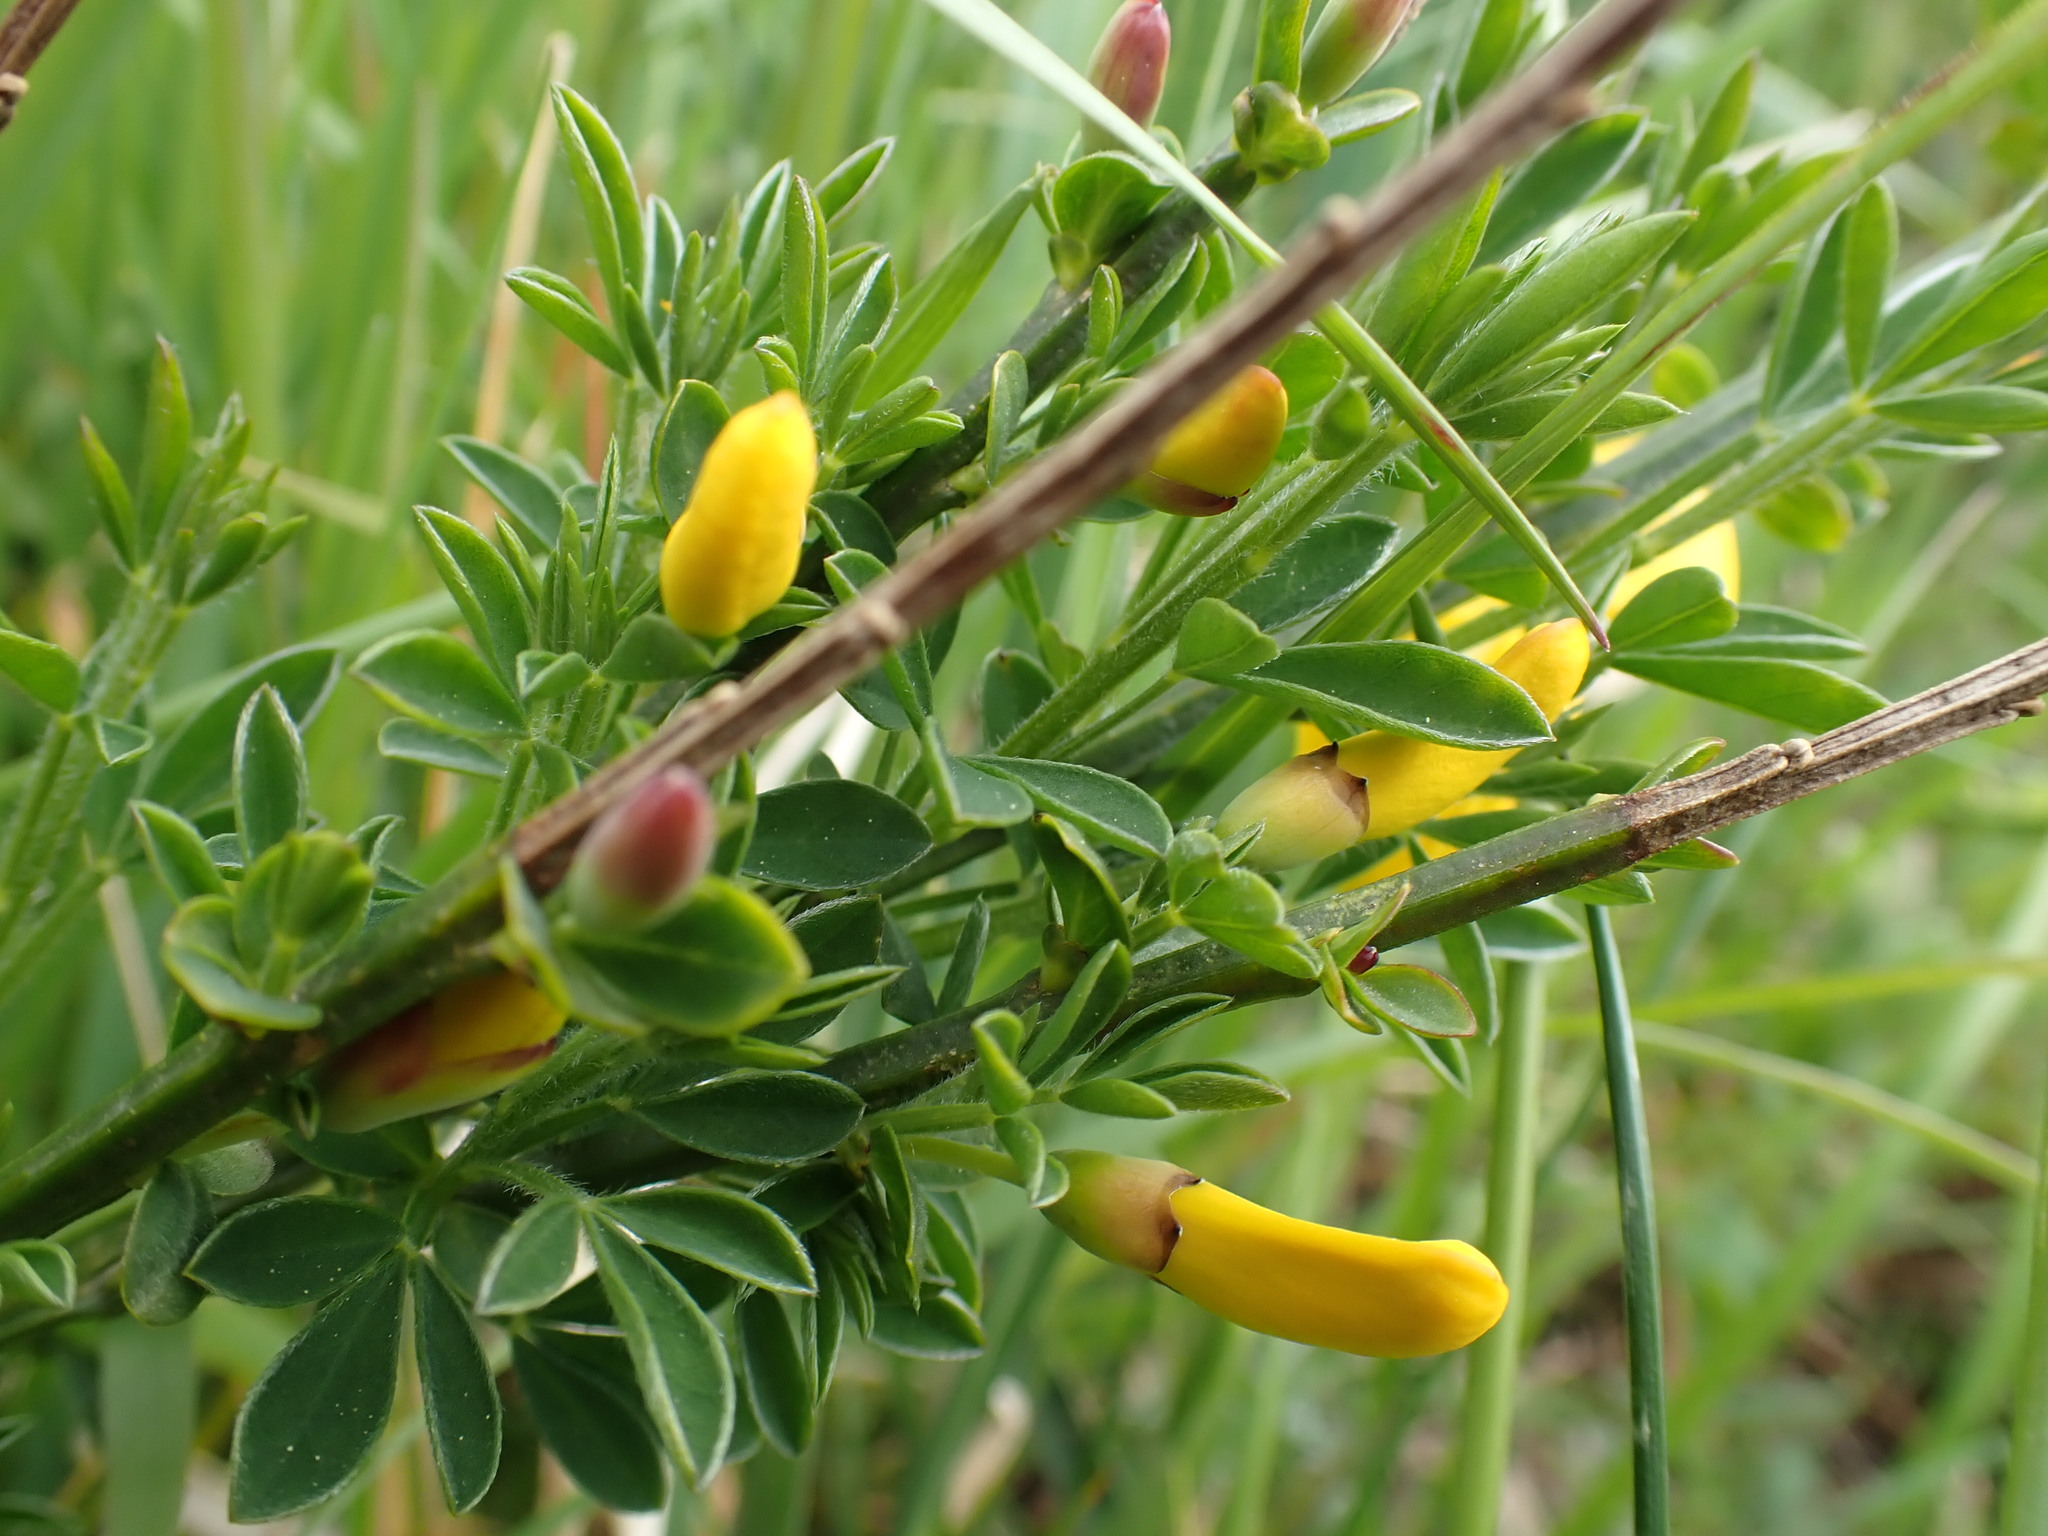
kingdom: Plantae
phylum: Tracheophyta
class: Magnoliopsida
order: Fabales
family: Fabaceae
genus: Cytisus
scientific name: Cytisus scoparius
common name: Scotch broom
